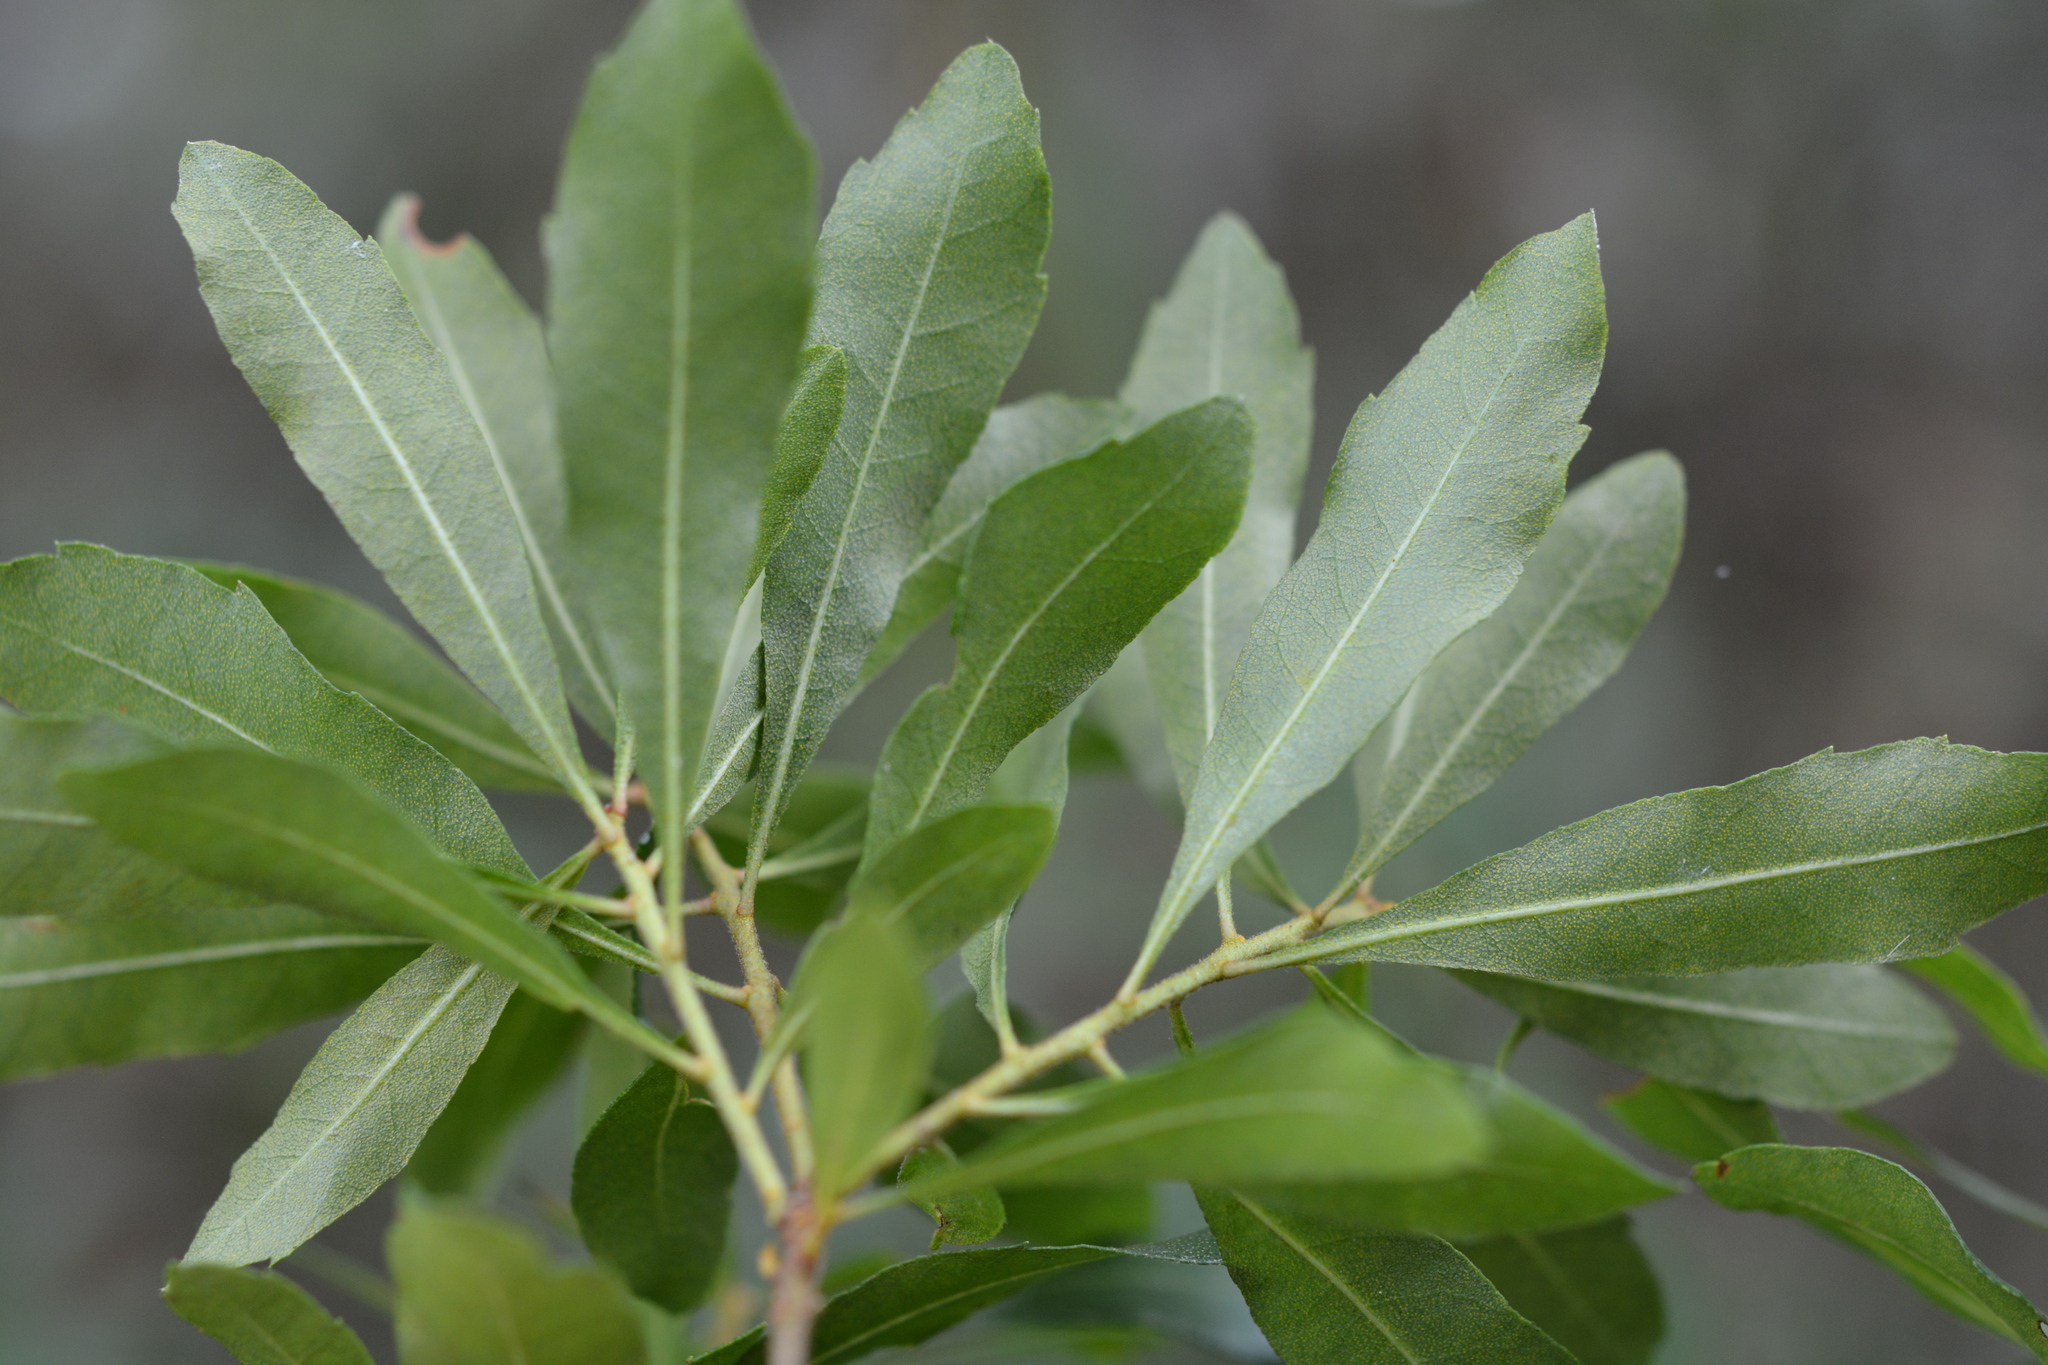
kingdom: Plantae
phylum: Tracheophyta
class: Magnoliopsida
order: Fagales
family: Myricaceae
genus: Morella
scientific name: Morella cerifera
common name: Wax myrtle
